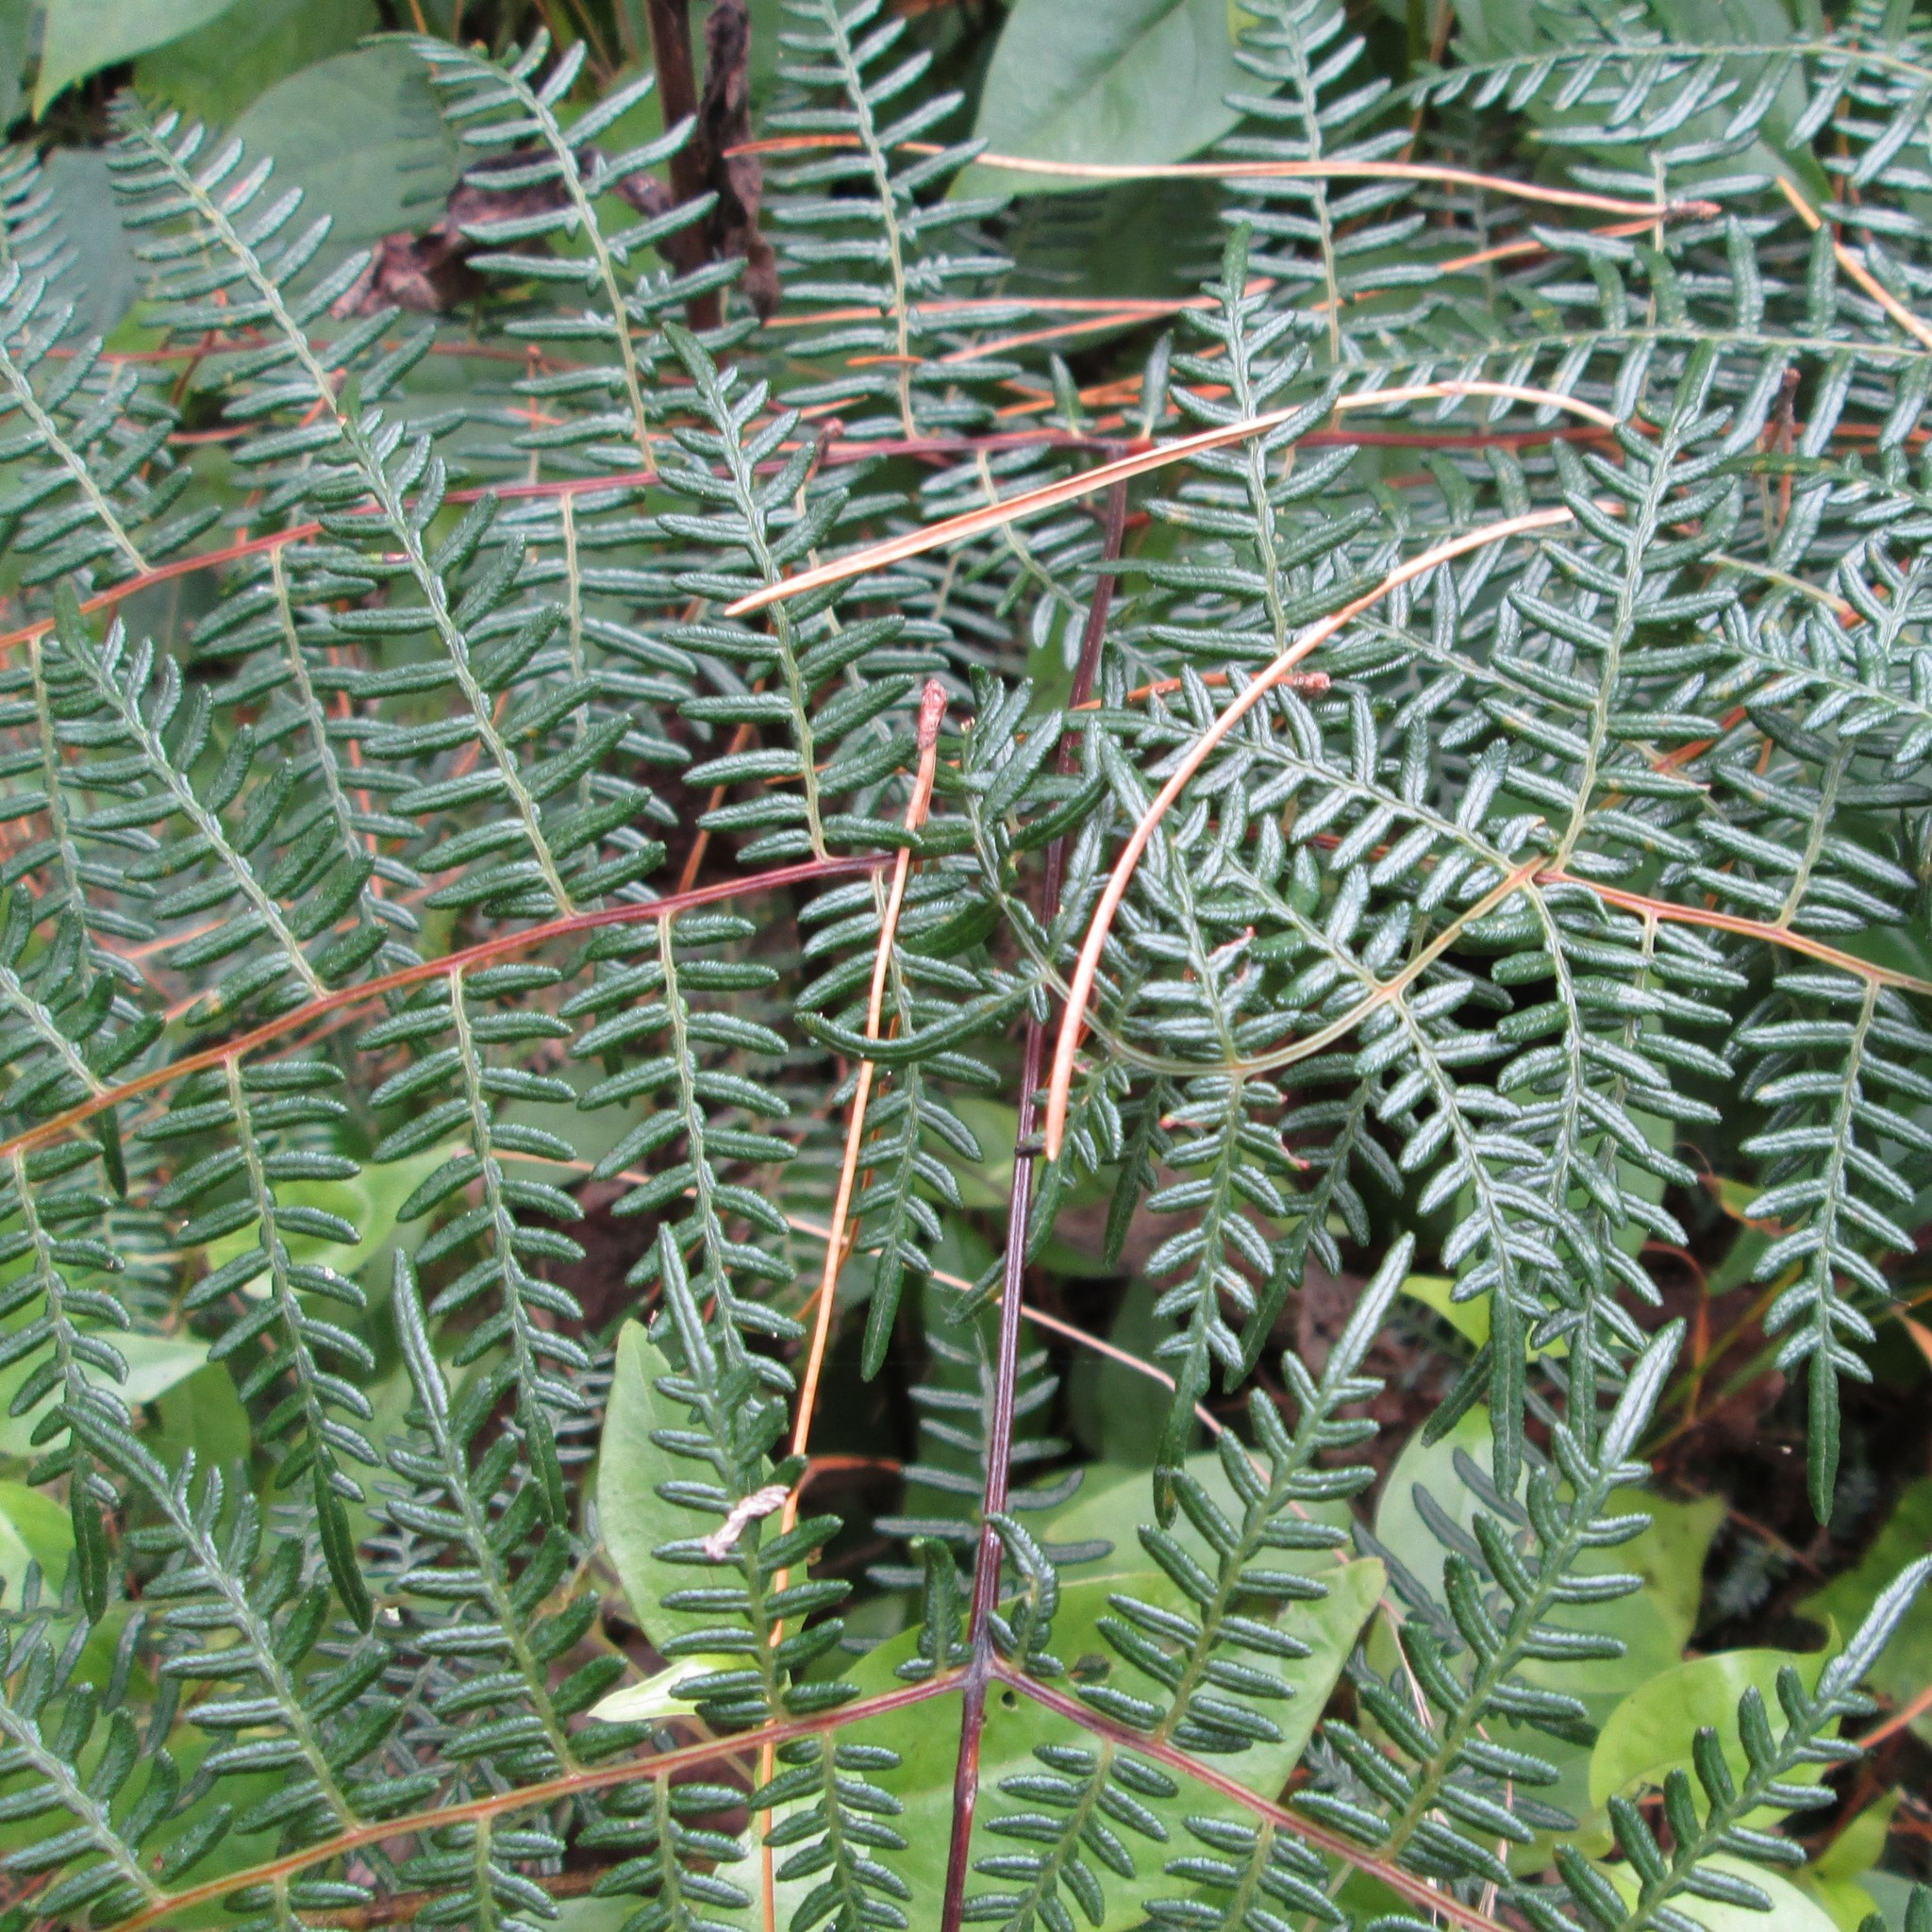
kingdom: Plantae
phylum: Tracheophyta
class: Polypodiopsida
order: Polypodiales
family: Dennstaedtiaceae
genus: Pteridium
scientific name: Pteridium esculentum
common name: Bracken fern
